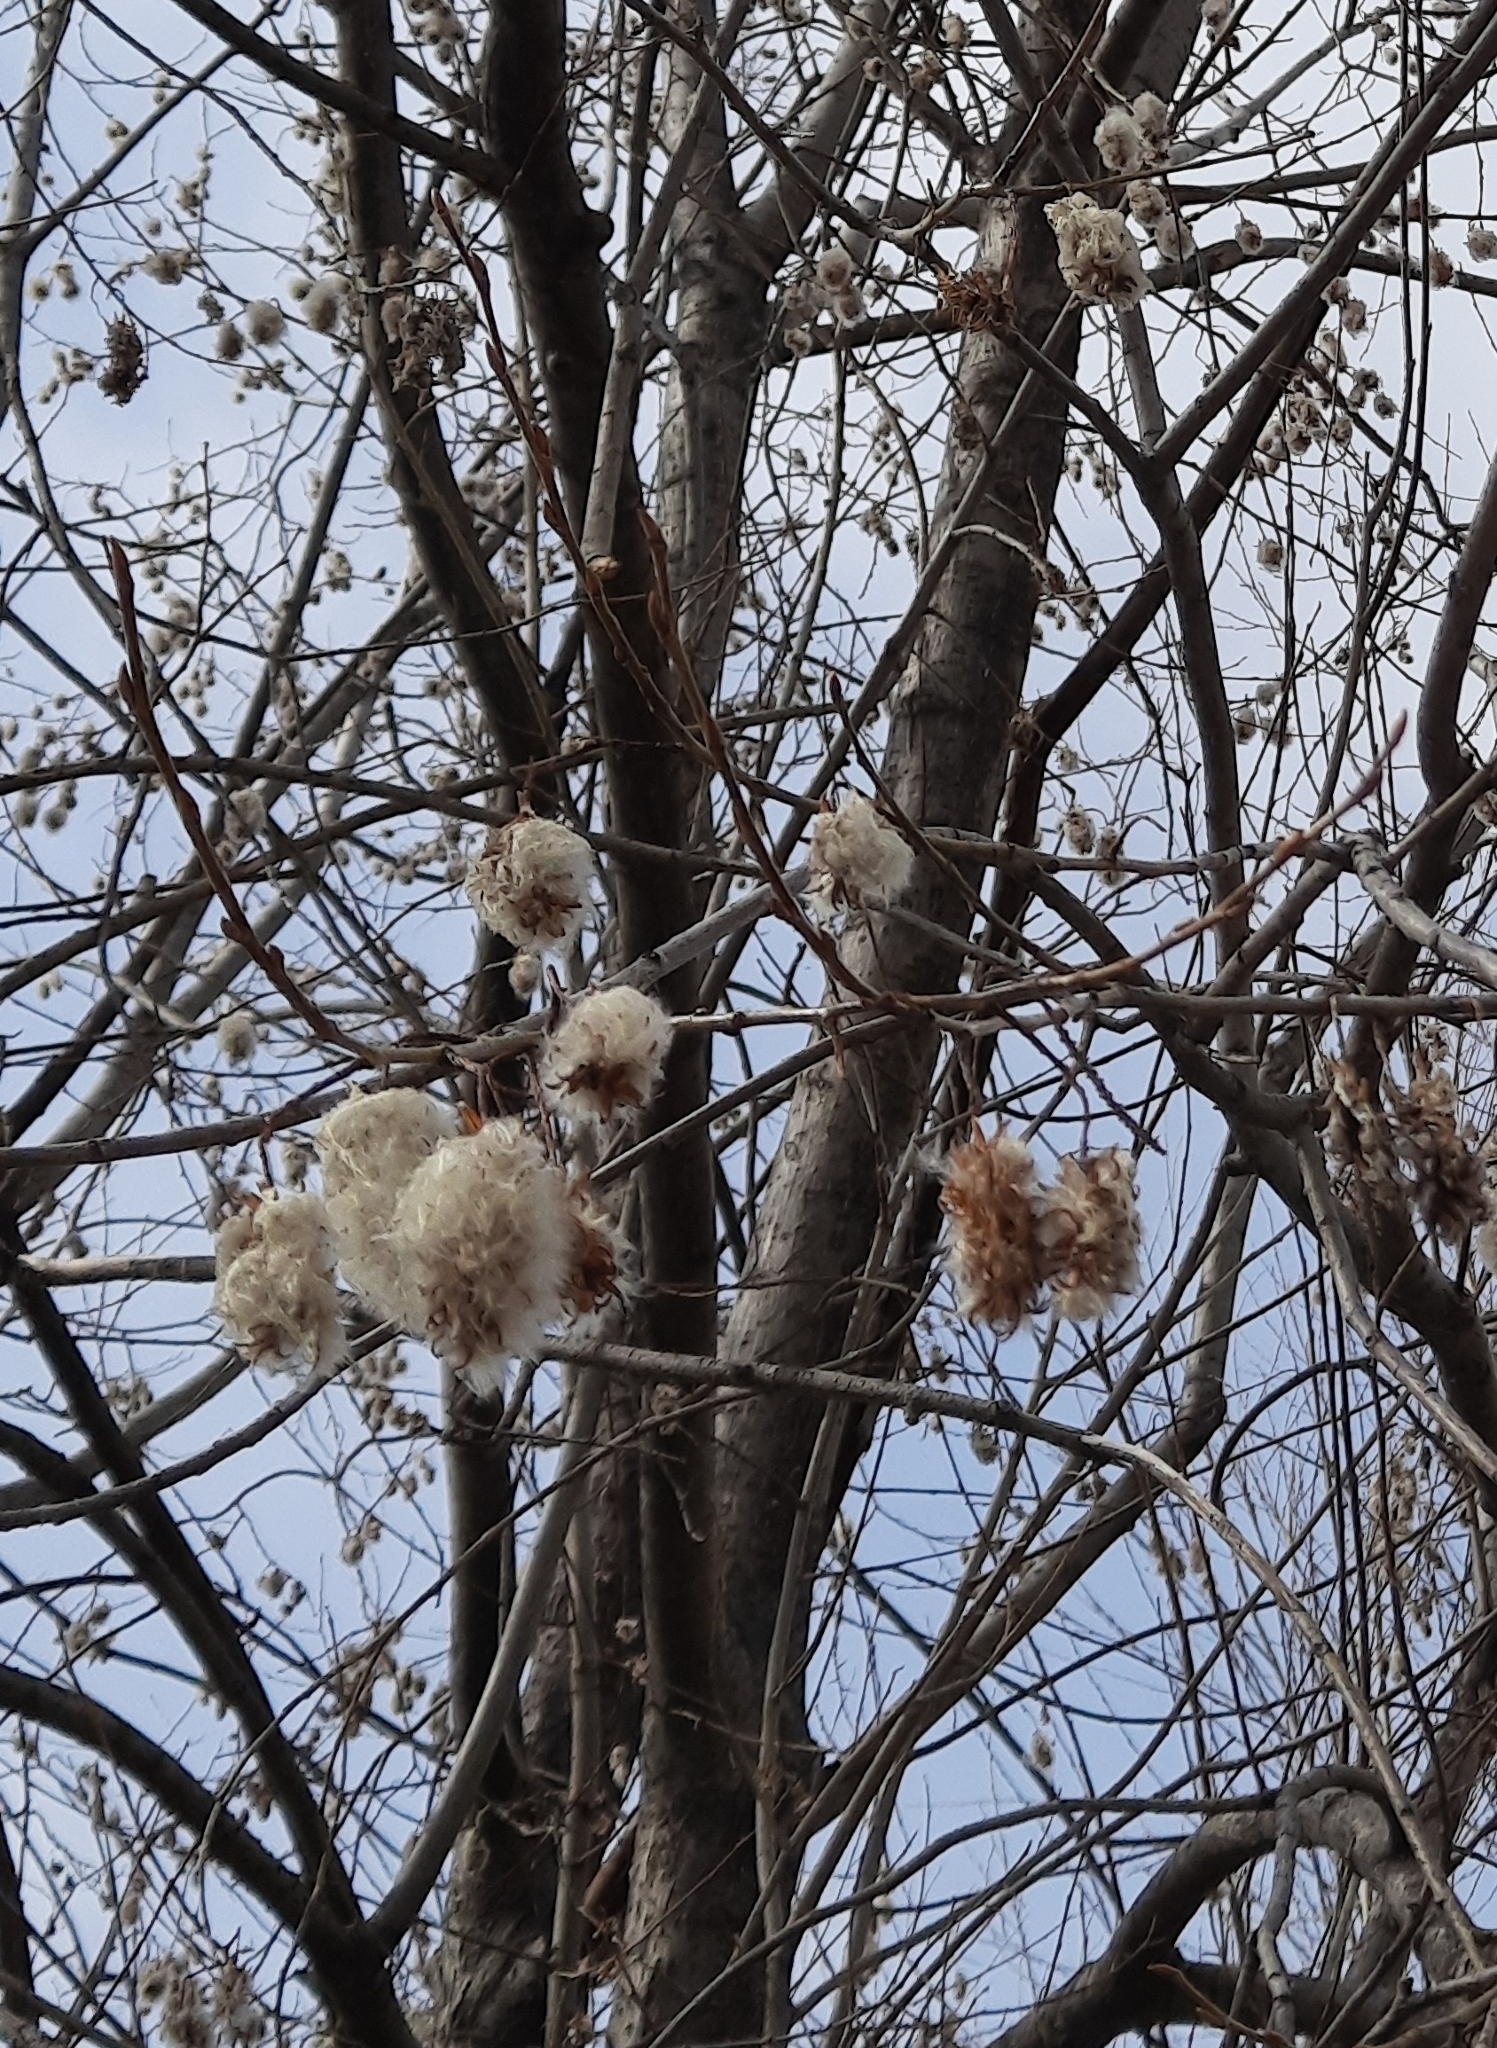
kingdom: Plantae
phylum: Tracheophyta
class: Magnoliopsida
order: Malpighiales
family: Salicaceae
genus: Salix
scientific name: Salix pentandra
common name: Bay willow
